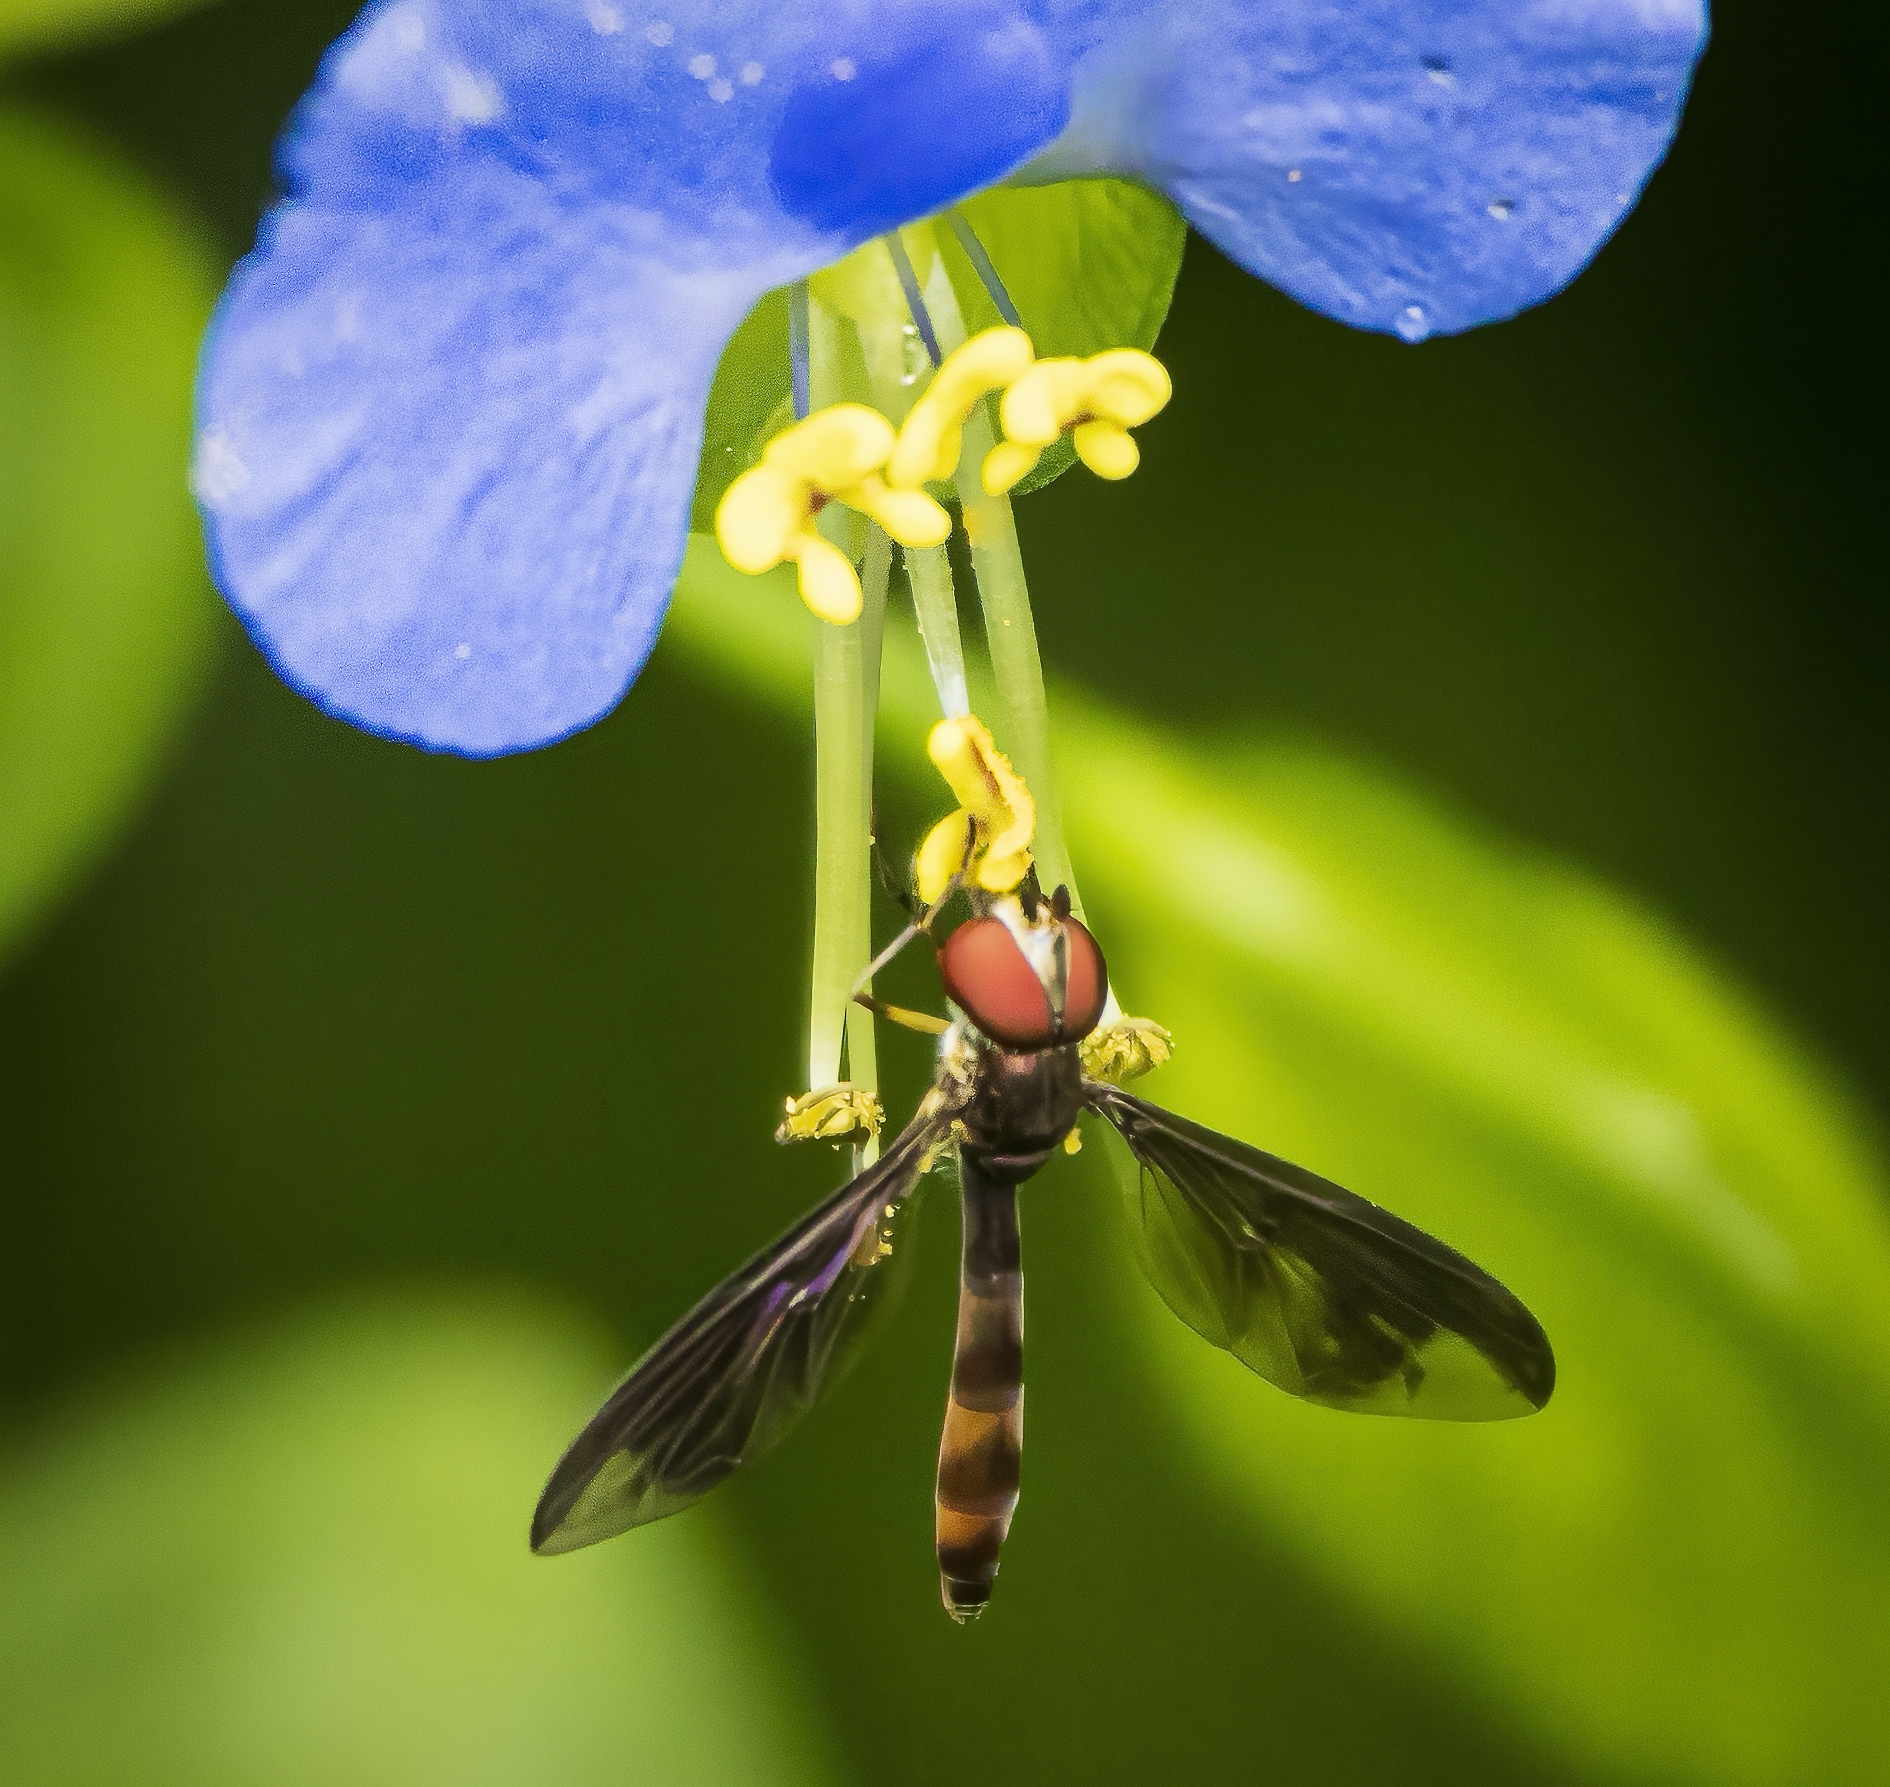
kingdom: Animalia
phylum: Arthropoda
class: Insecta
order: Diptera
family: Syrphidae
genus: Ocyptamus
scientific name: Ocyptamus fuscipennis
